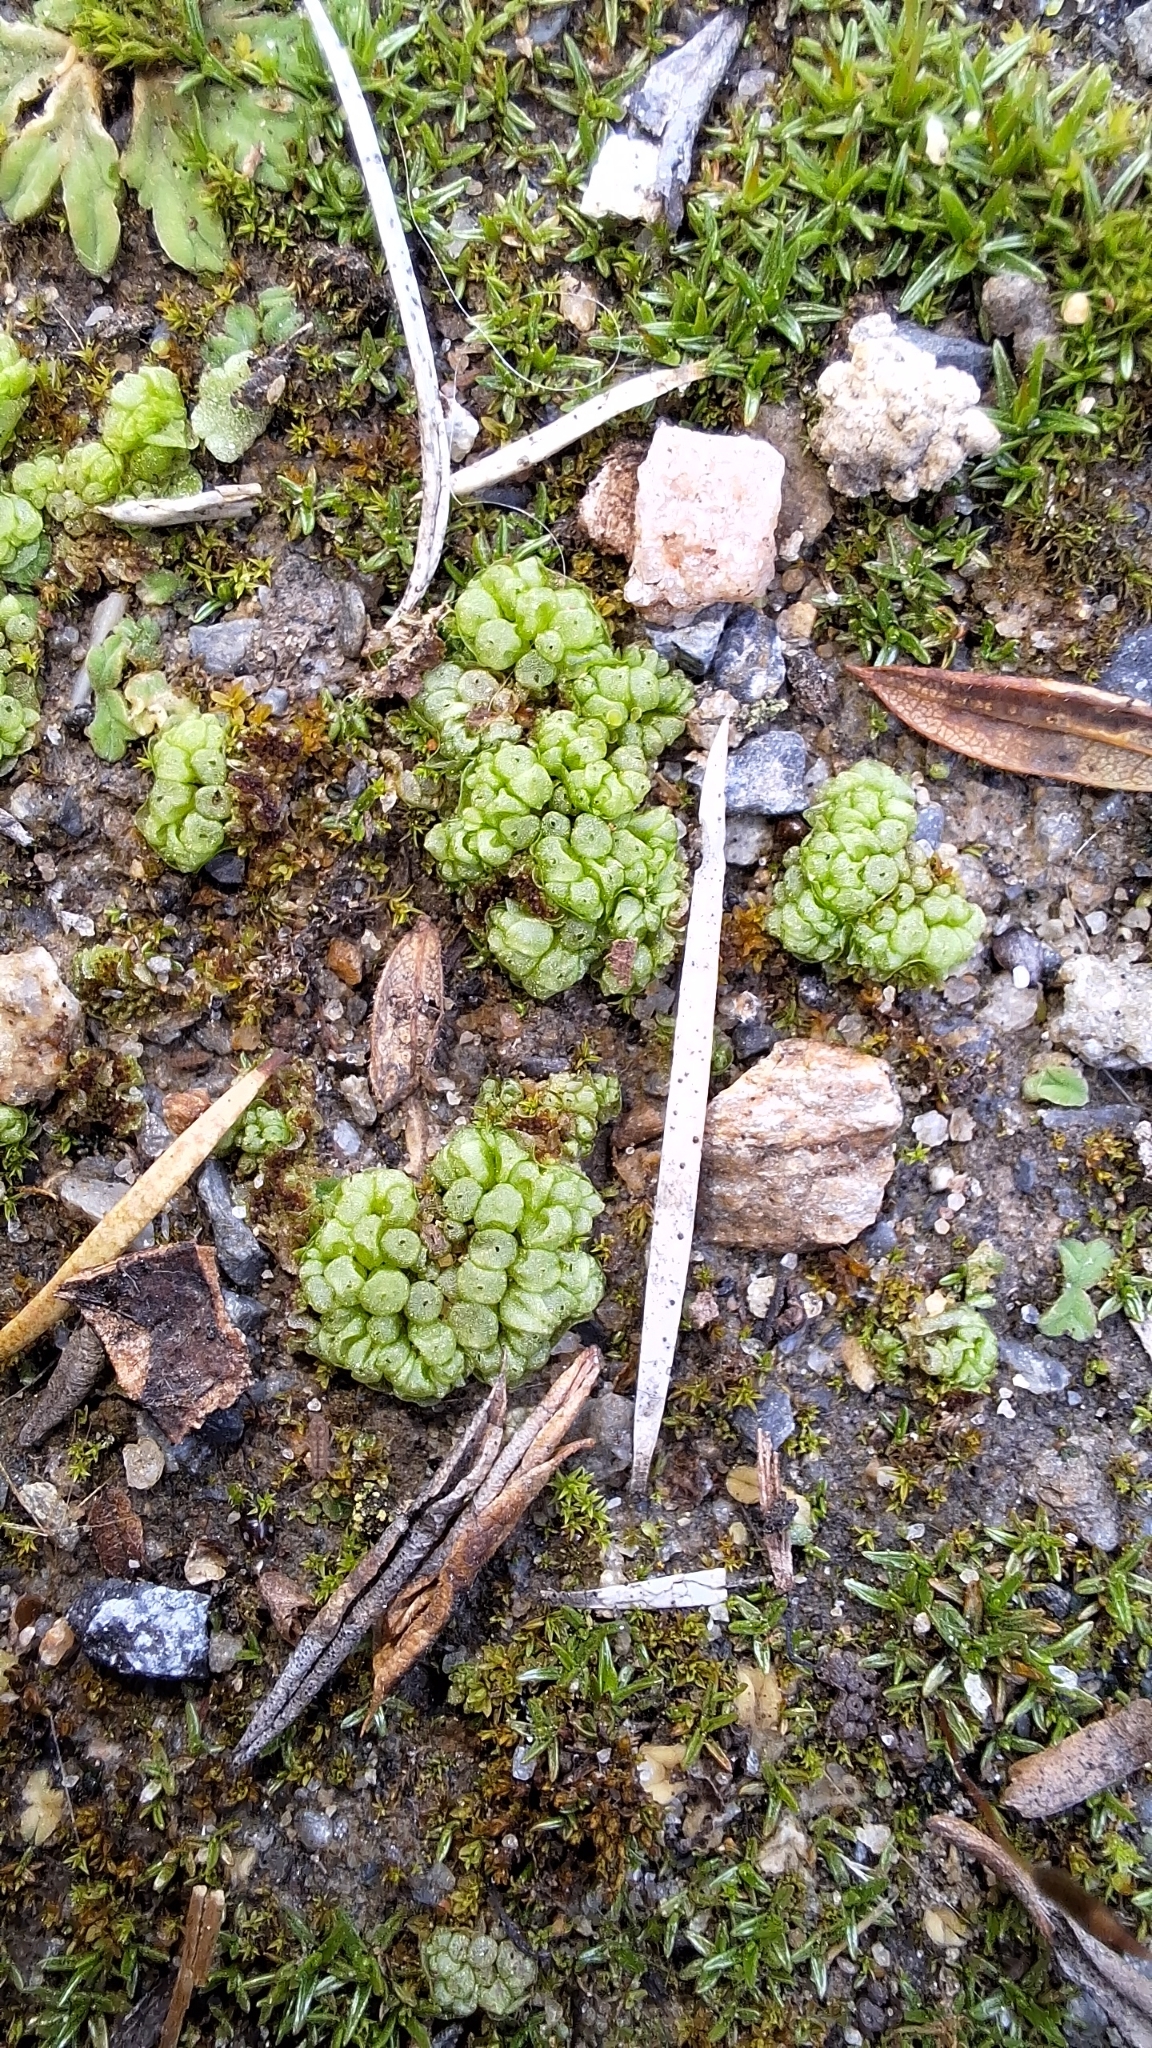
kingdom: Plantae
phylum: Marchantiophyta
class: Marchantiopsida
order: Sphaerocarpales
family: Sphaerocarpaceae
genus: Sphaerocarpos
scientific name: Sphaerocarpos texanus
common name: Texas balloonwort
